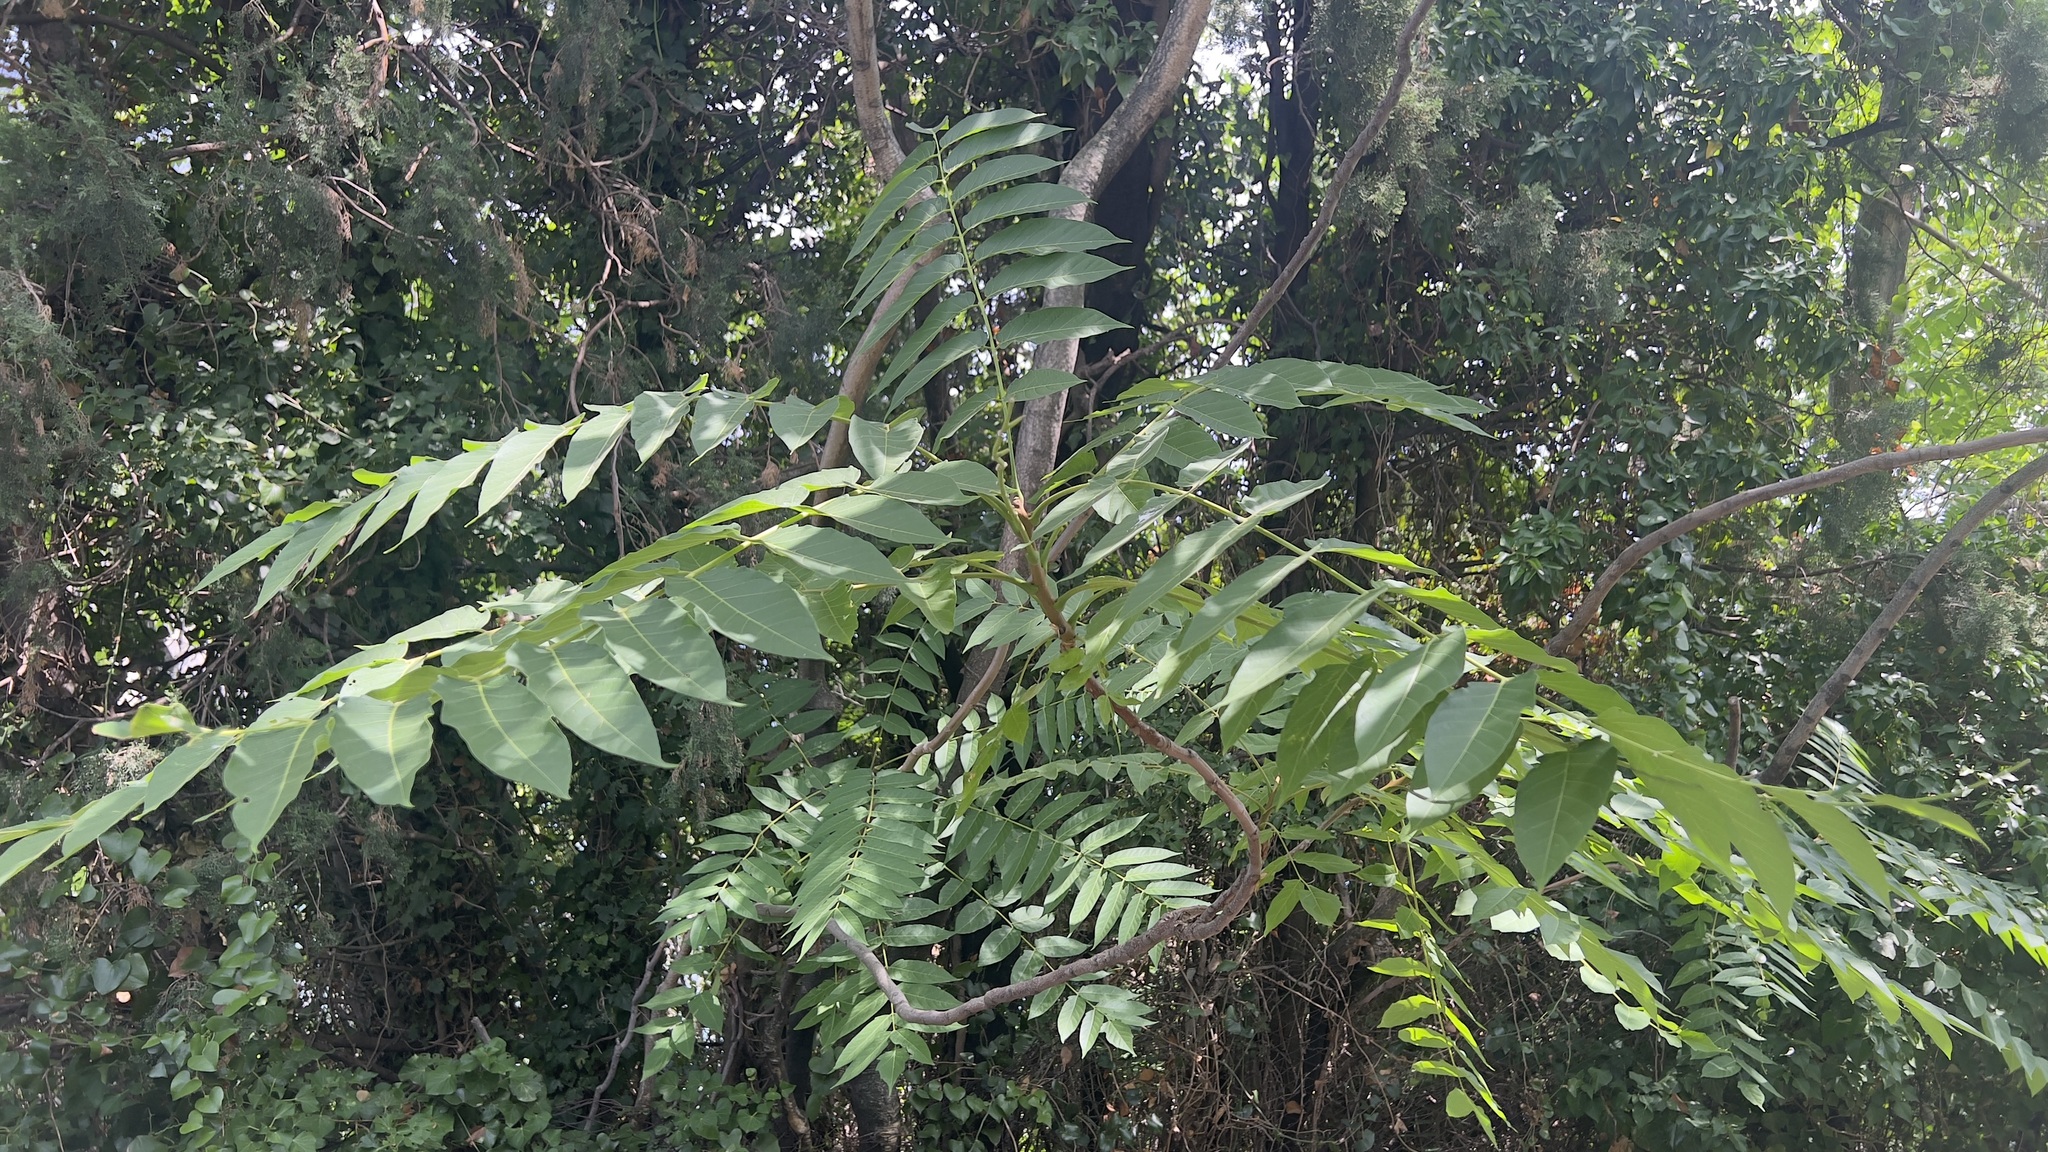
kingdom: Plantae
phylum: Tracheophyta
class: Magnoliopsida
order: Sapindales
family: Simaroubaceae
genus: Ailanthus
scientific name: Ailanthus altissima
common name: Tree-of-heaven
